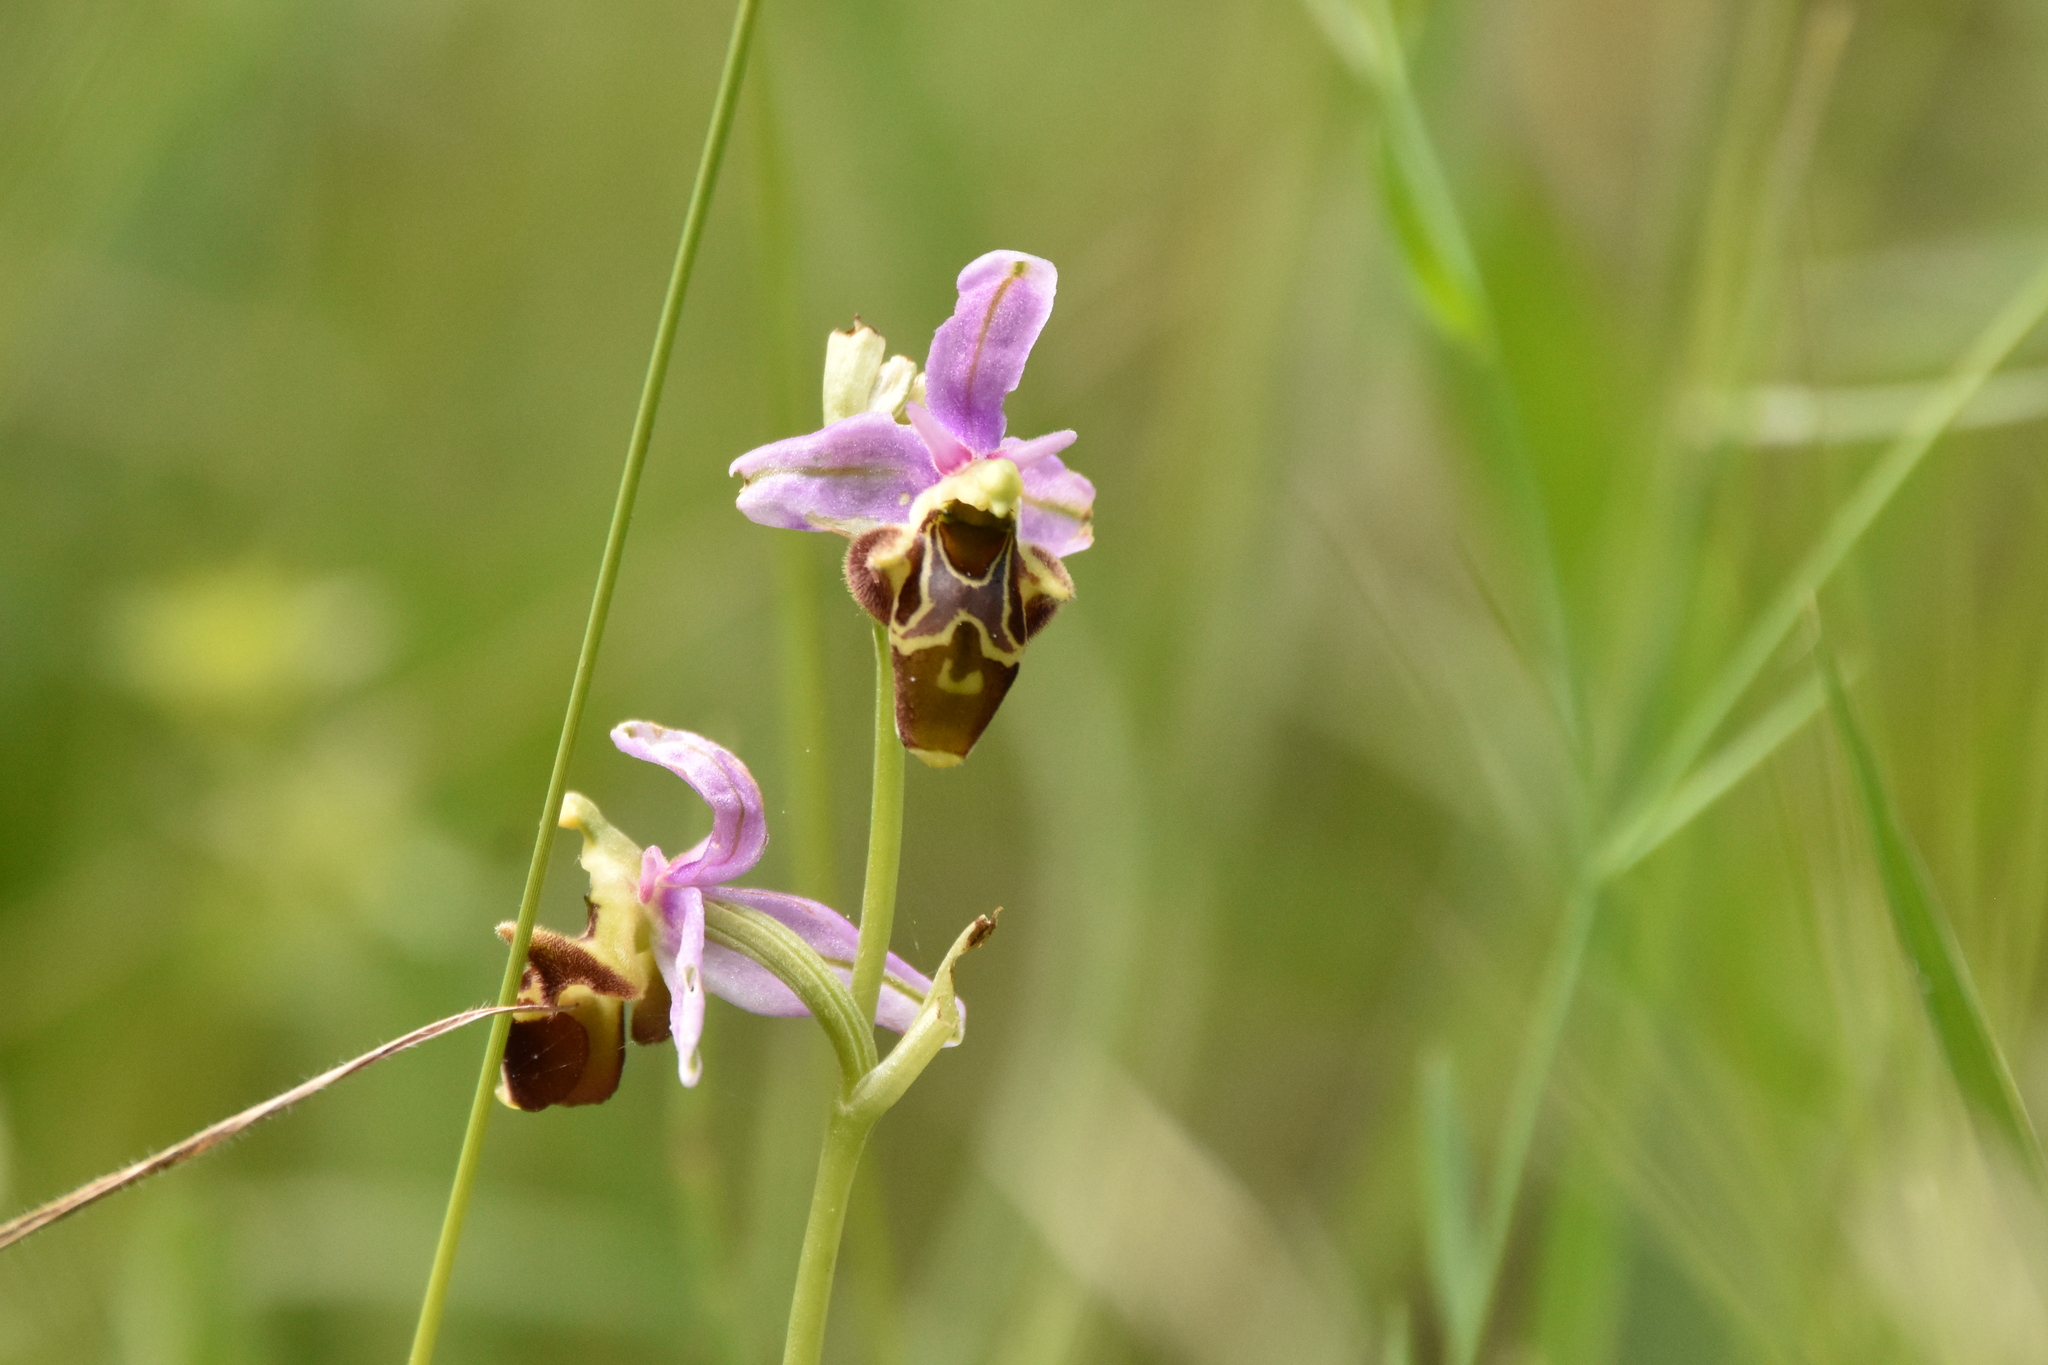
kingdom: Plantae
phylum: Tracheophyta
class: Liliopsida
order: Asparagales
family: Orchidaceae
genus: Ophrys
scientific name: Ophrys scolopax
